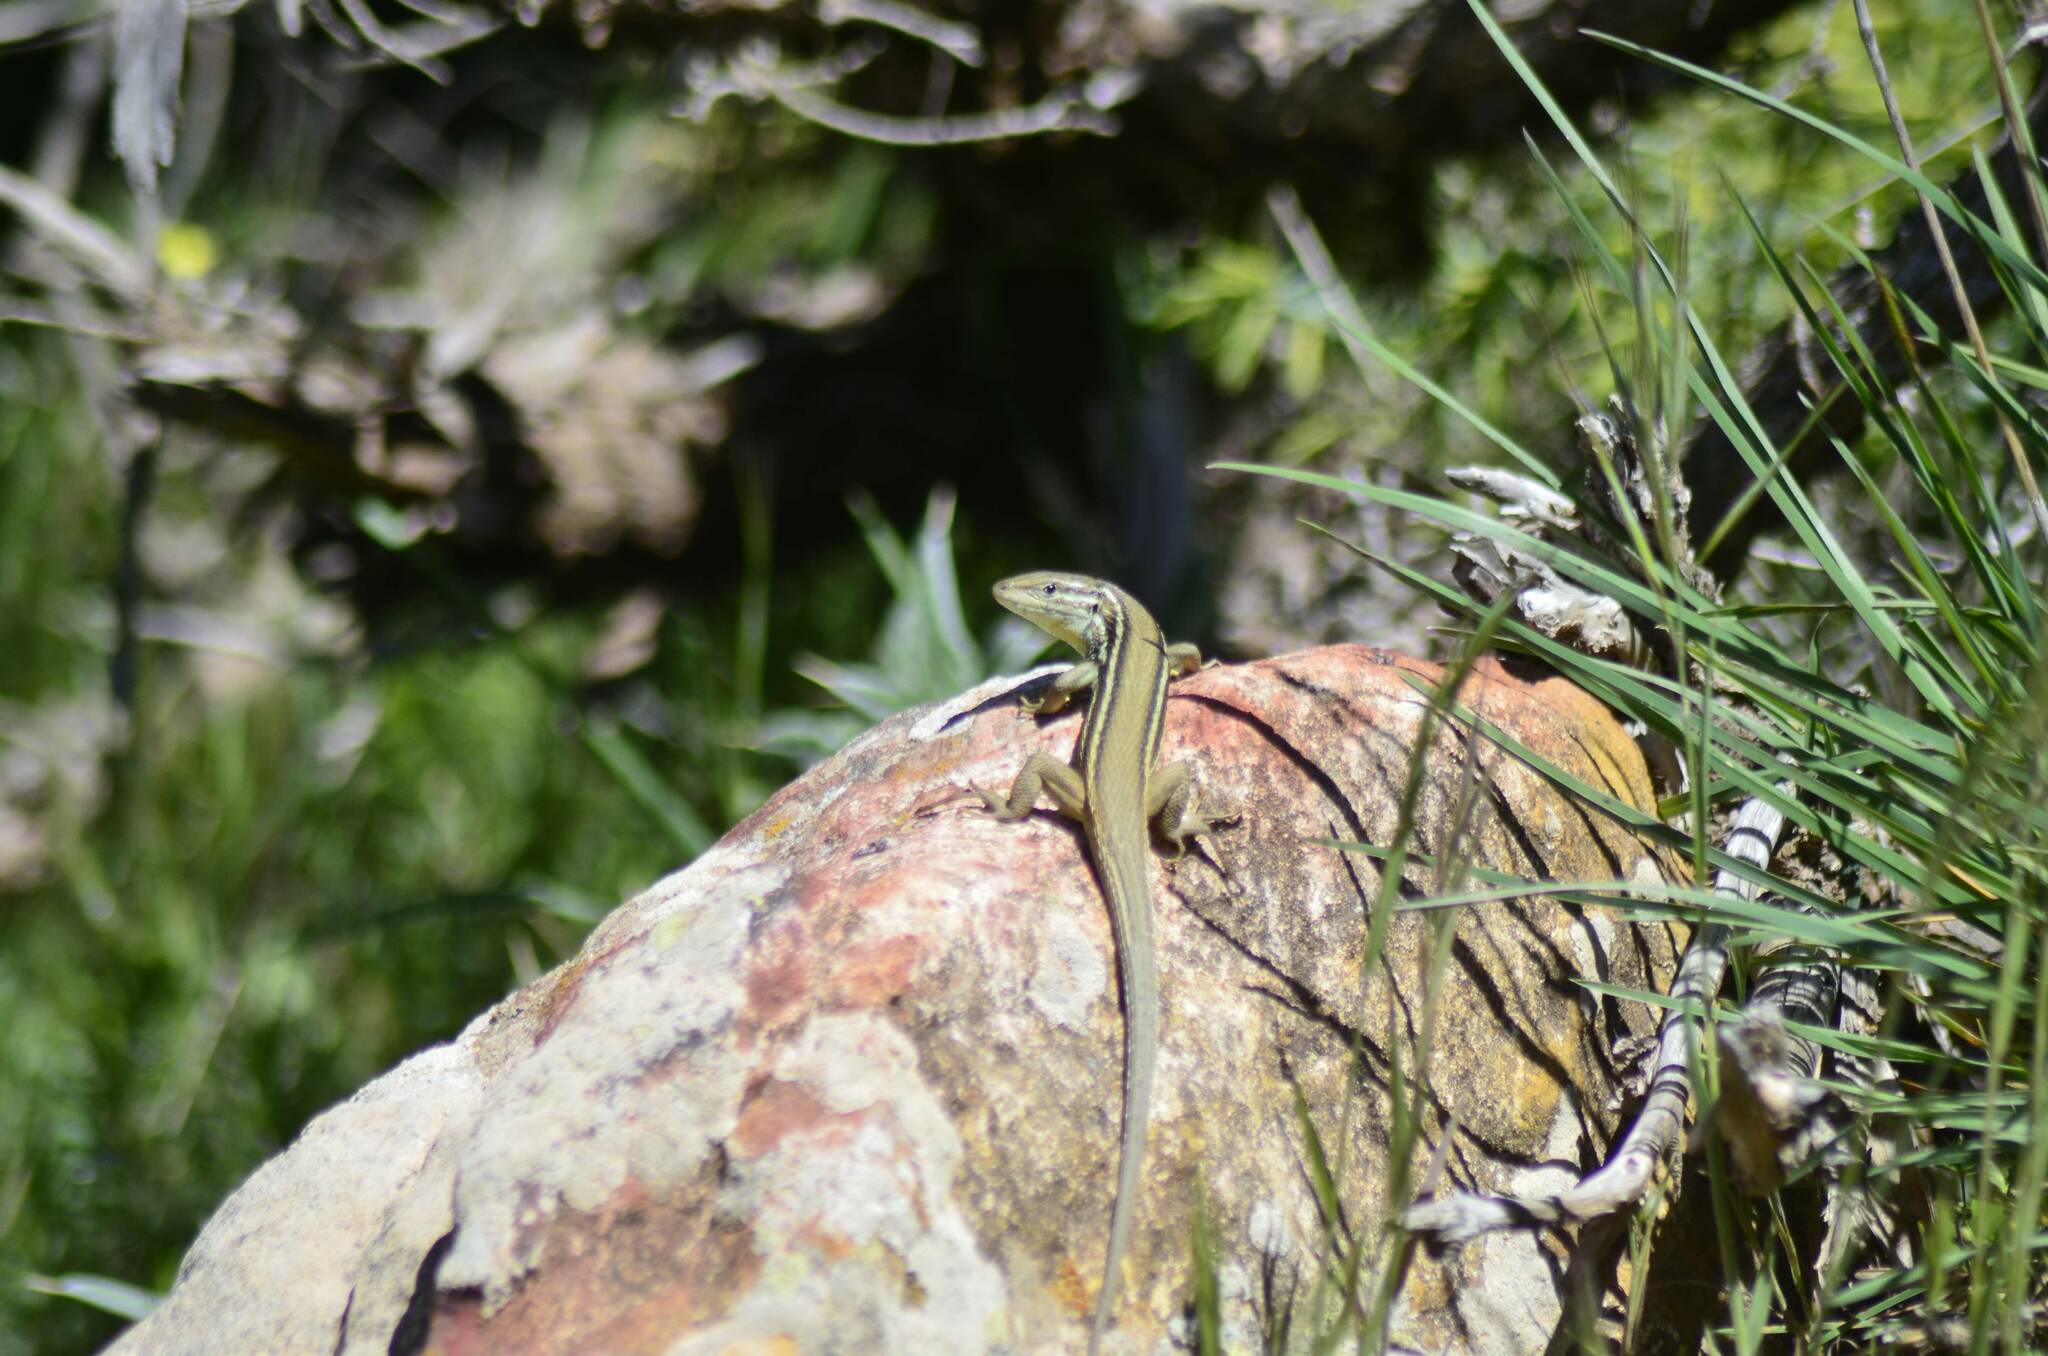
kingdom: Animalia
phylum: Chordata
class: Squamata
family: Lacertidae
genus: Psammodromus
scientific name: Psammodromus algirus
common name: Algerian psammodromus
